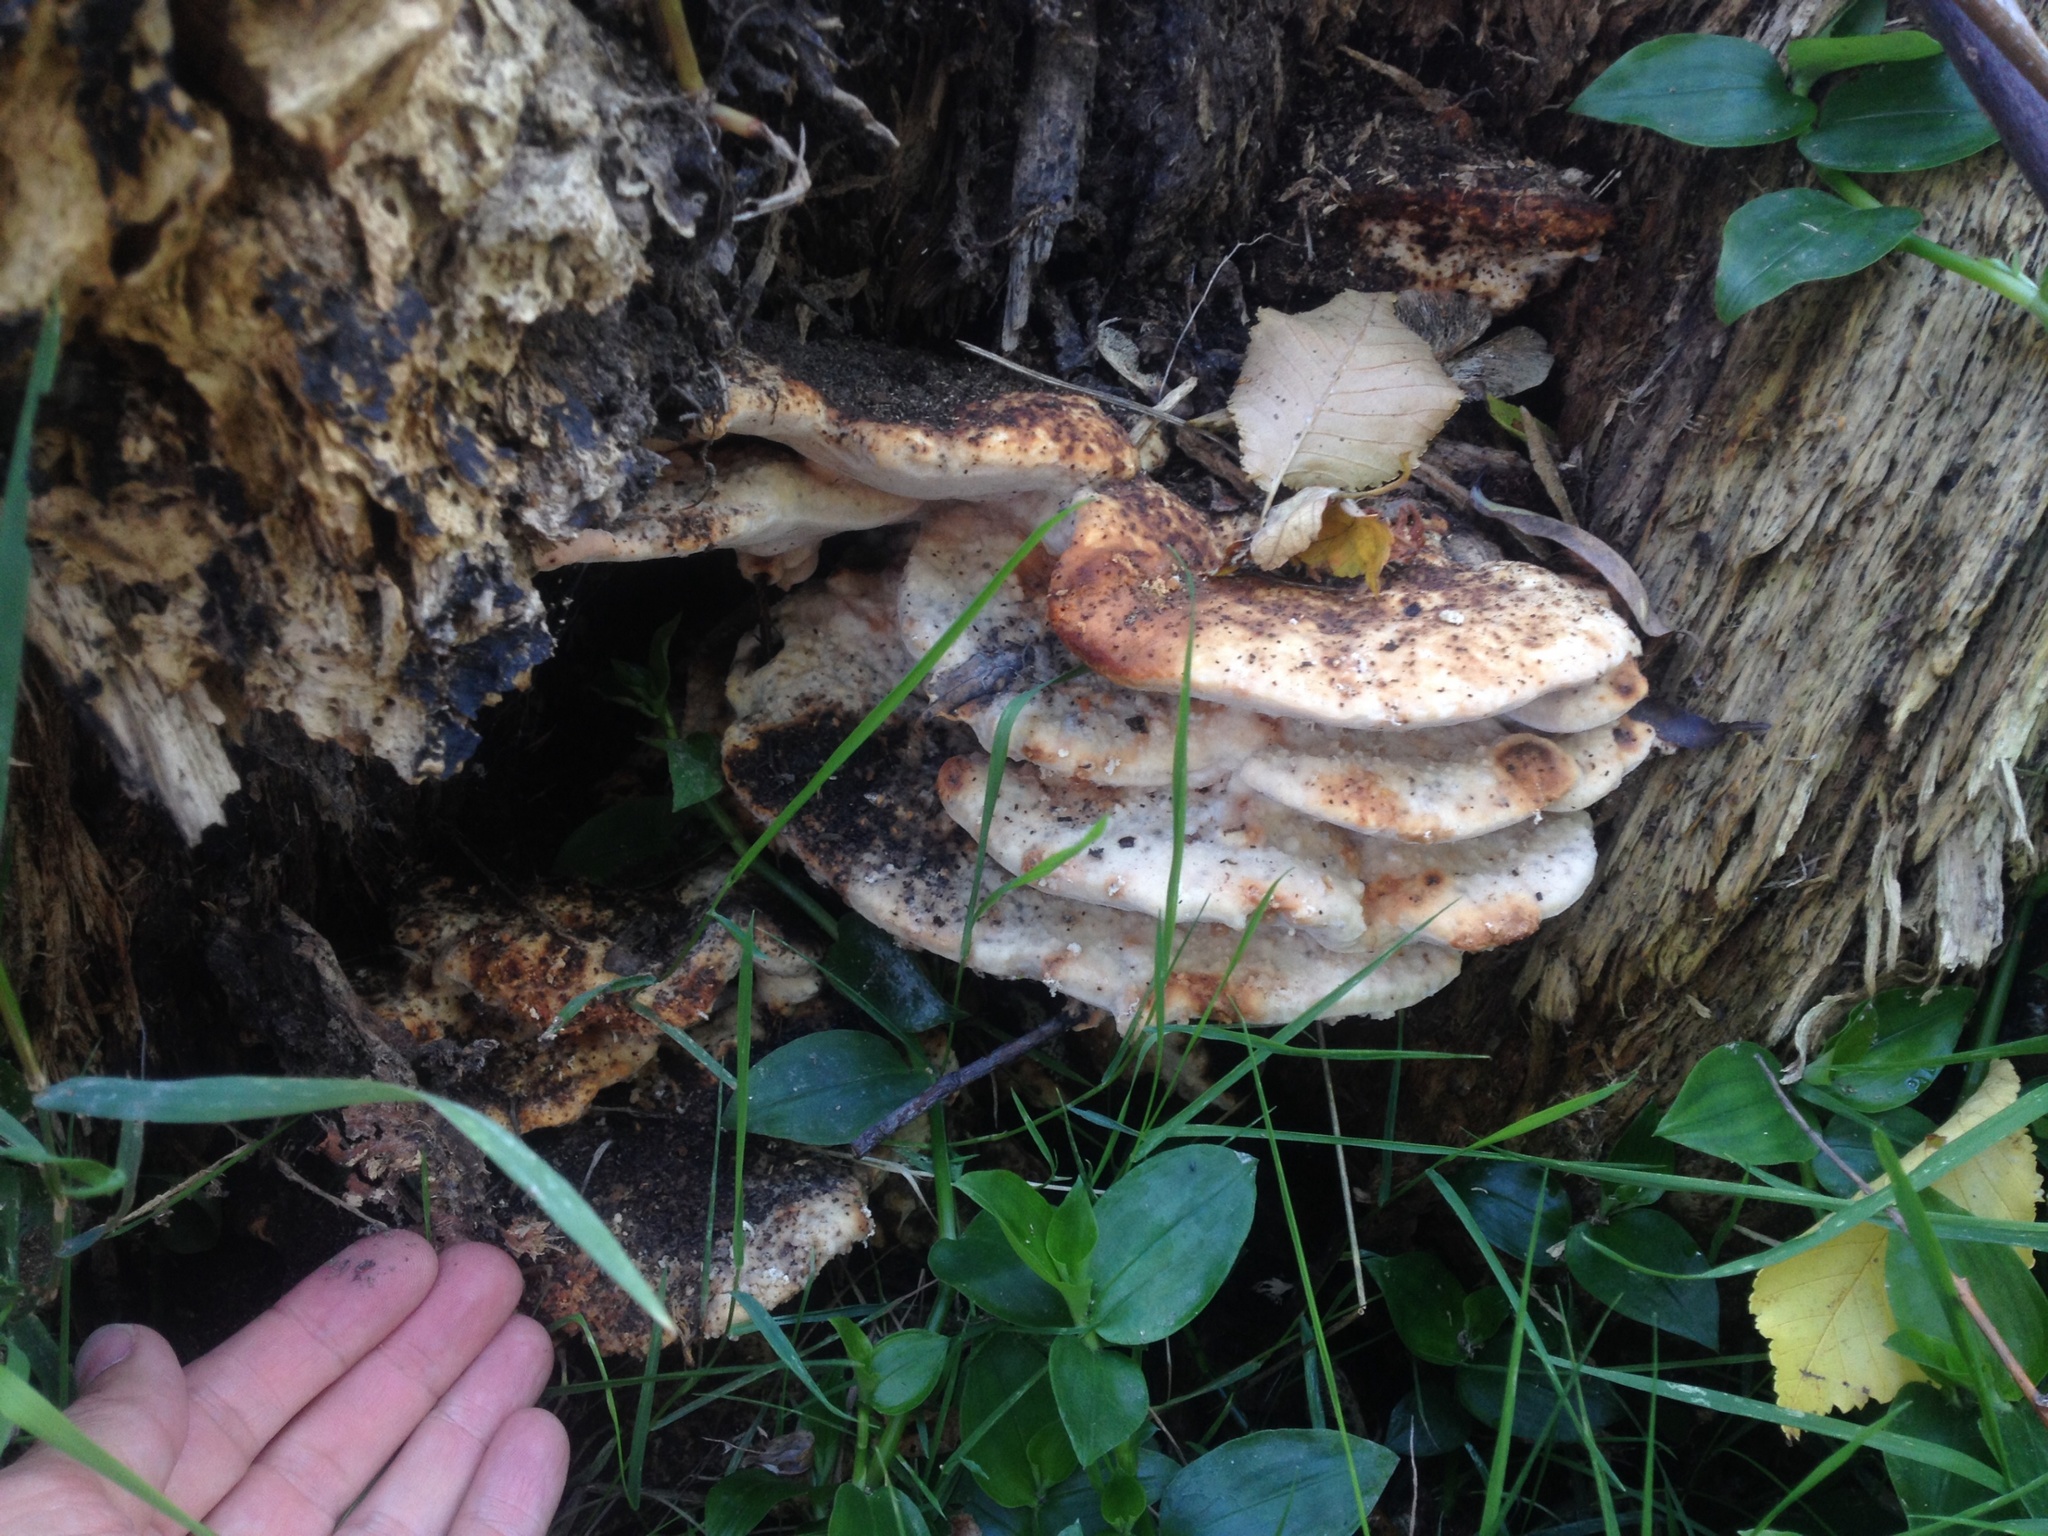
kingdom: Fungi
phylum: Basidiomycota
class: Agaricomycetes
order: Polyporales
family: Fomitopsidaceae
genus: Rhodofomitopsis
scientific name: Rhodofomitopsis lilacinogilva
